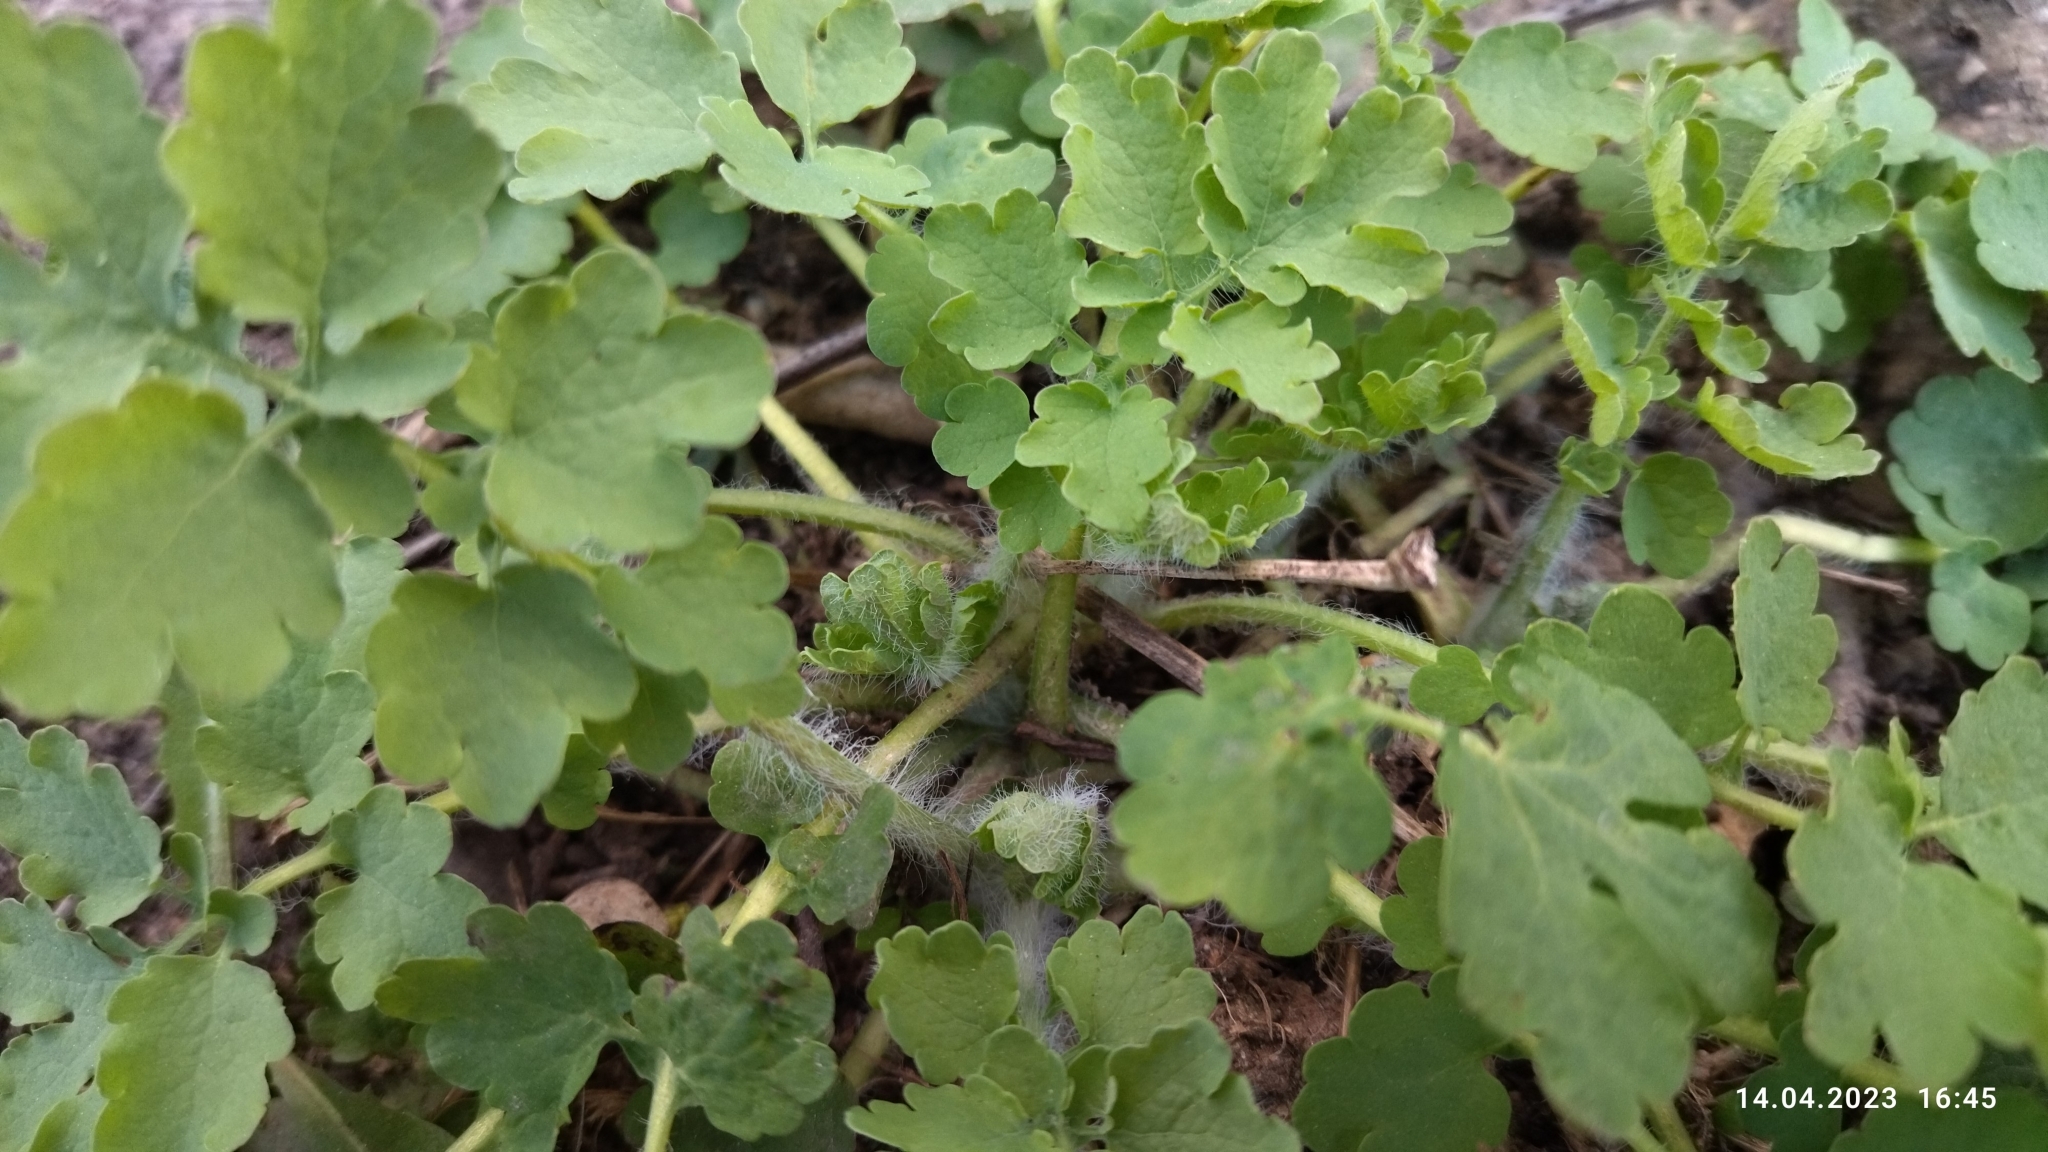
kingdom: Plantae
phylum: Tracheophyta
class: Magnoliopsida
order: Ranunculales
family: Papaveraceae
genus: Chelidonium
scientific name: Chelidonium majus
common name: Greater celandine
